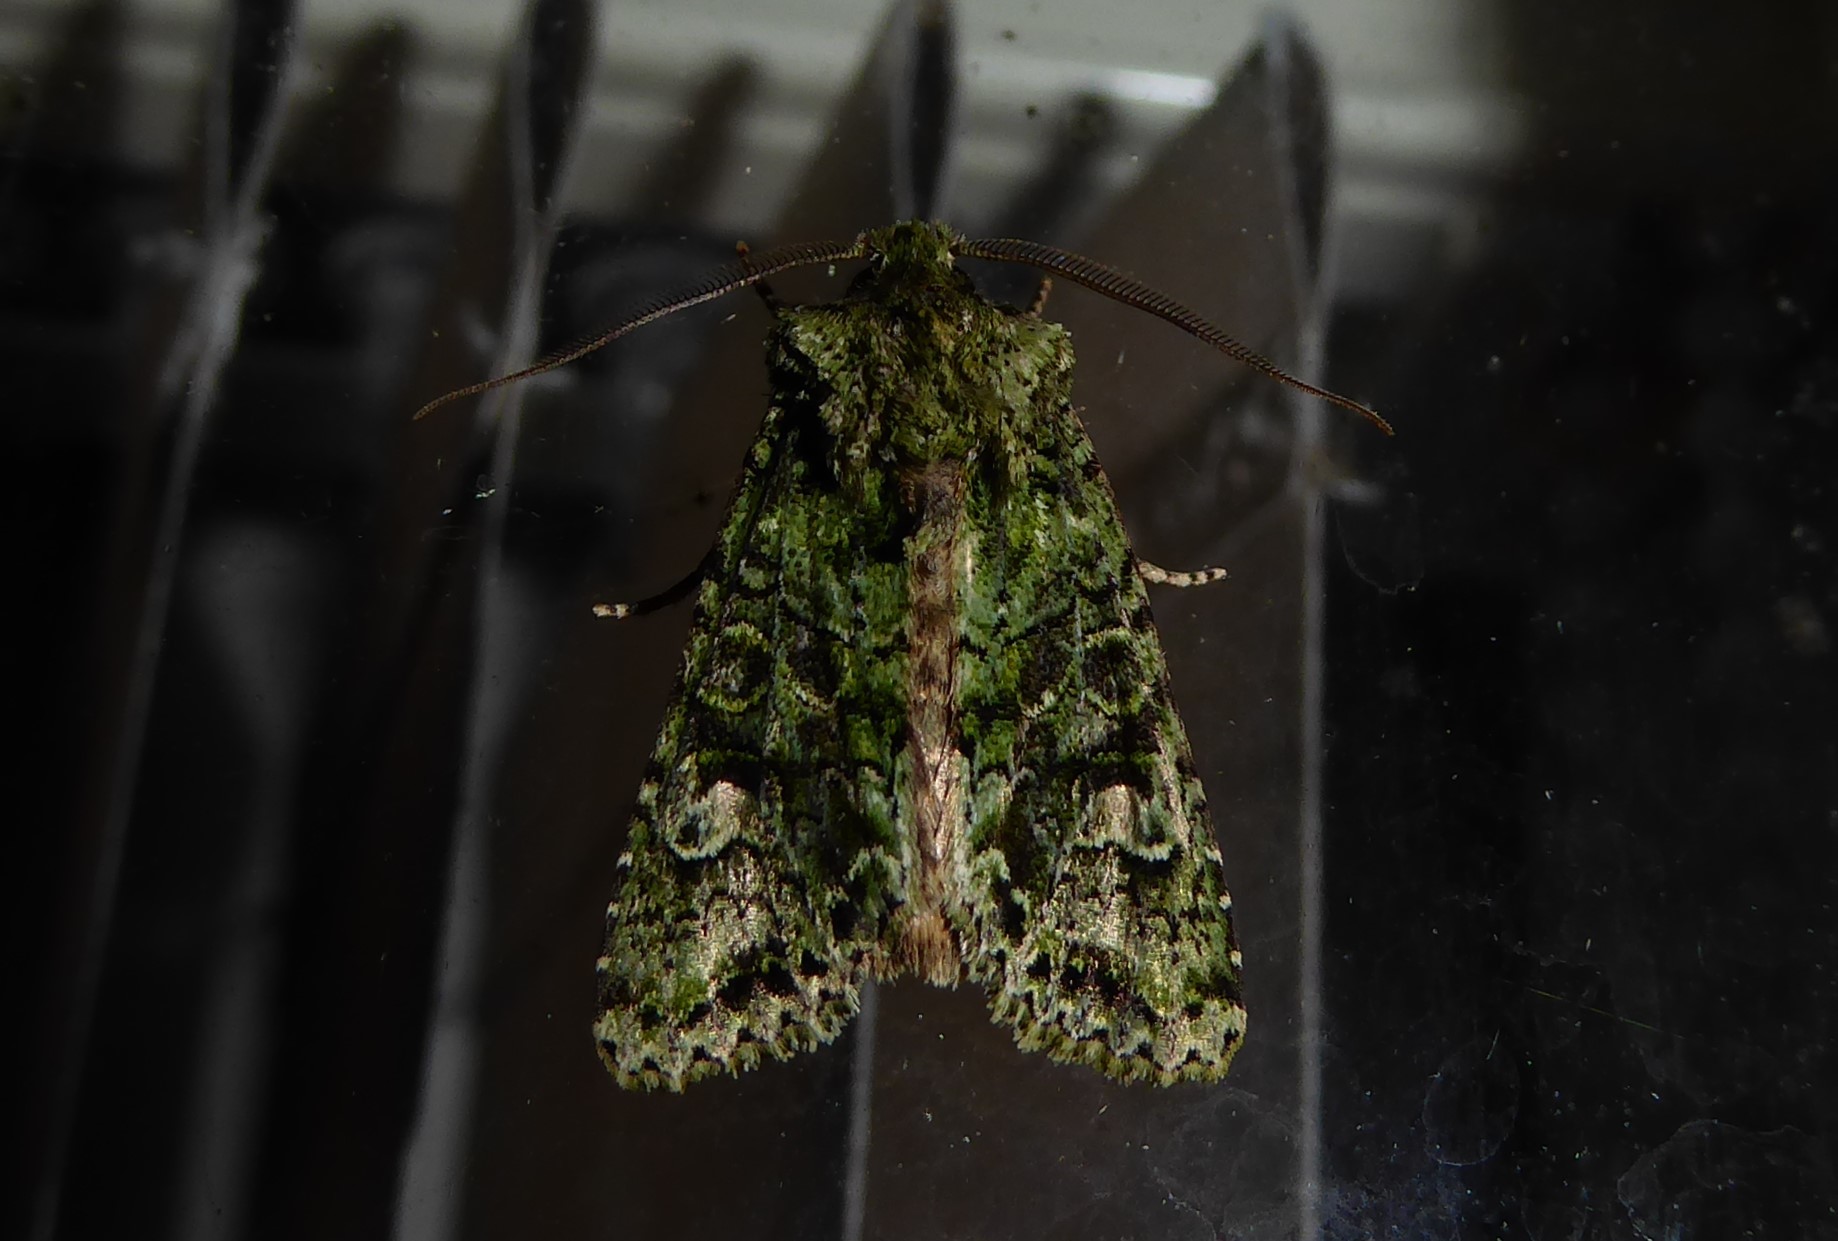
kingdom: Animalia
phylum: Arthropoda
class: Insecta
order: Lepidoptera
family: Noctuidae
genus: Ichneutica
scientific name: Ichneutica
